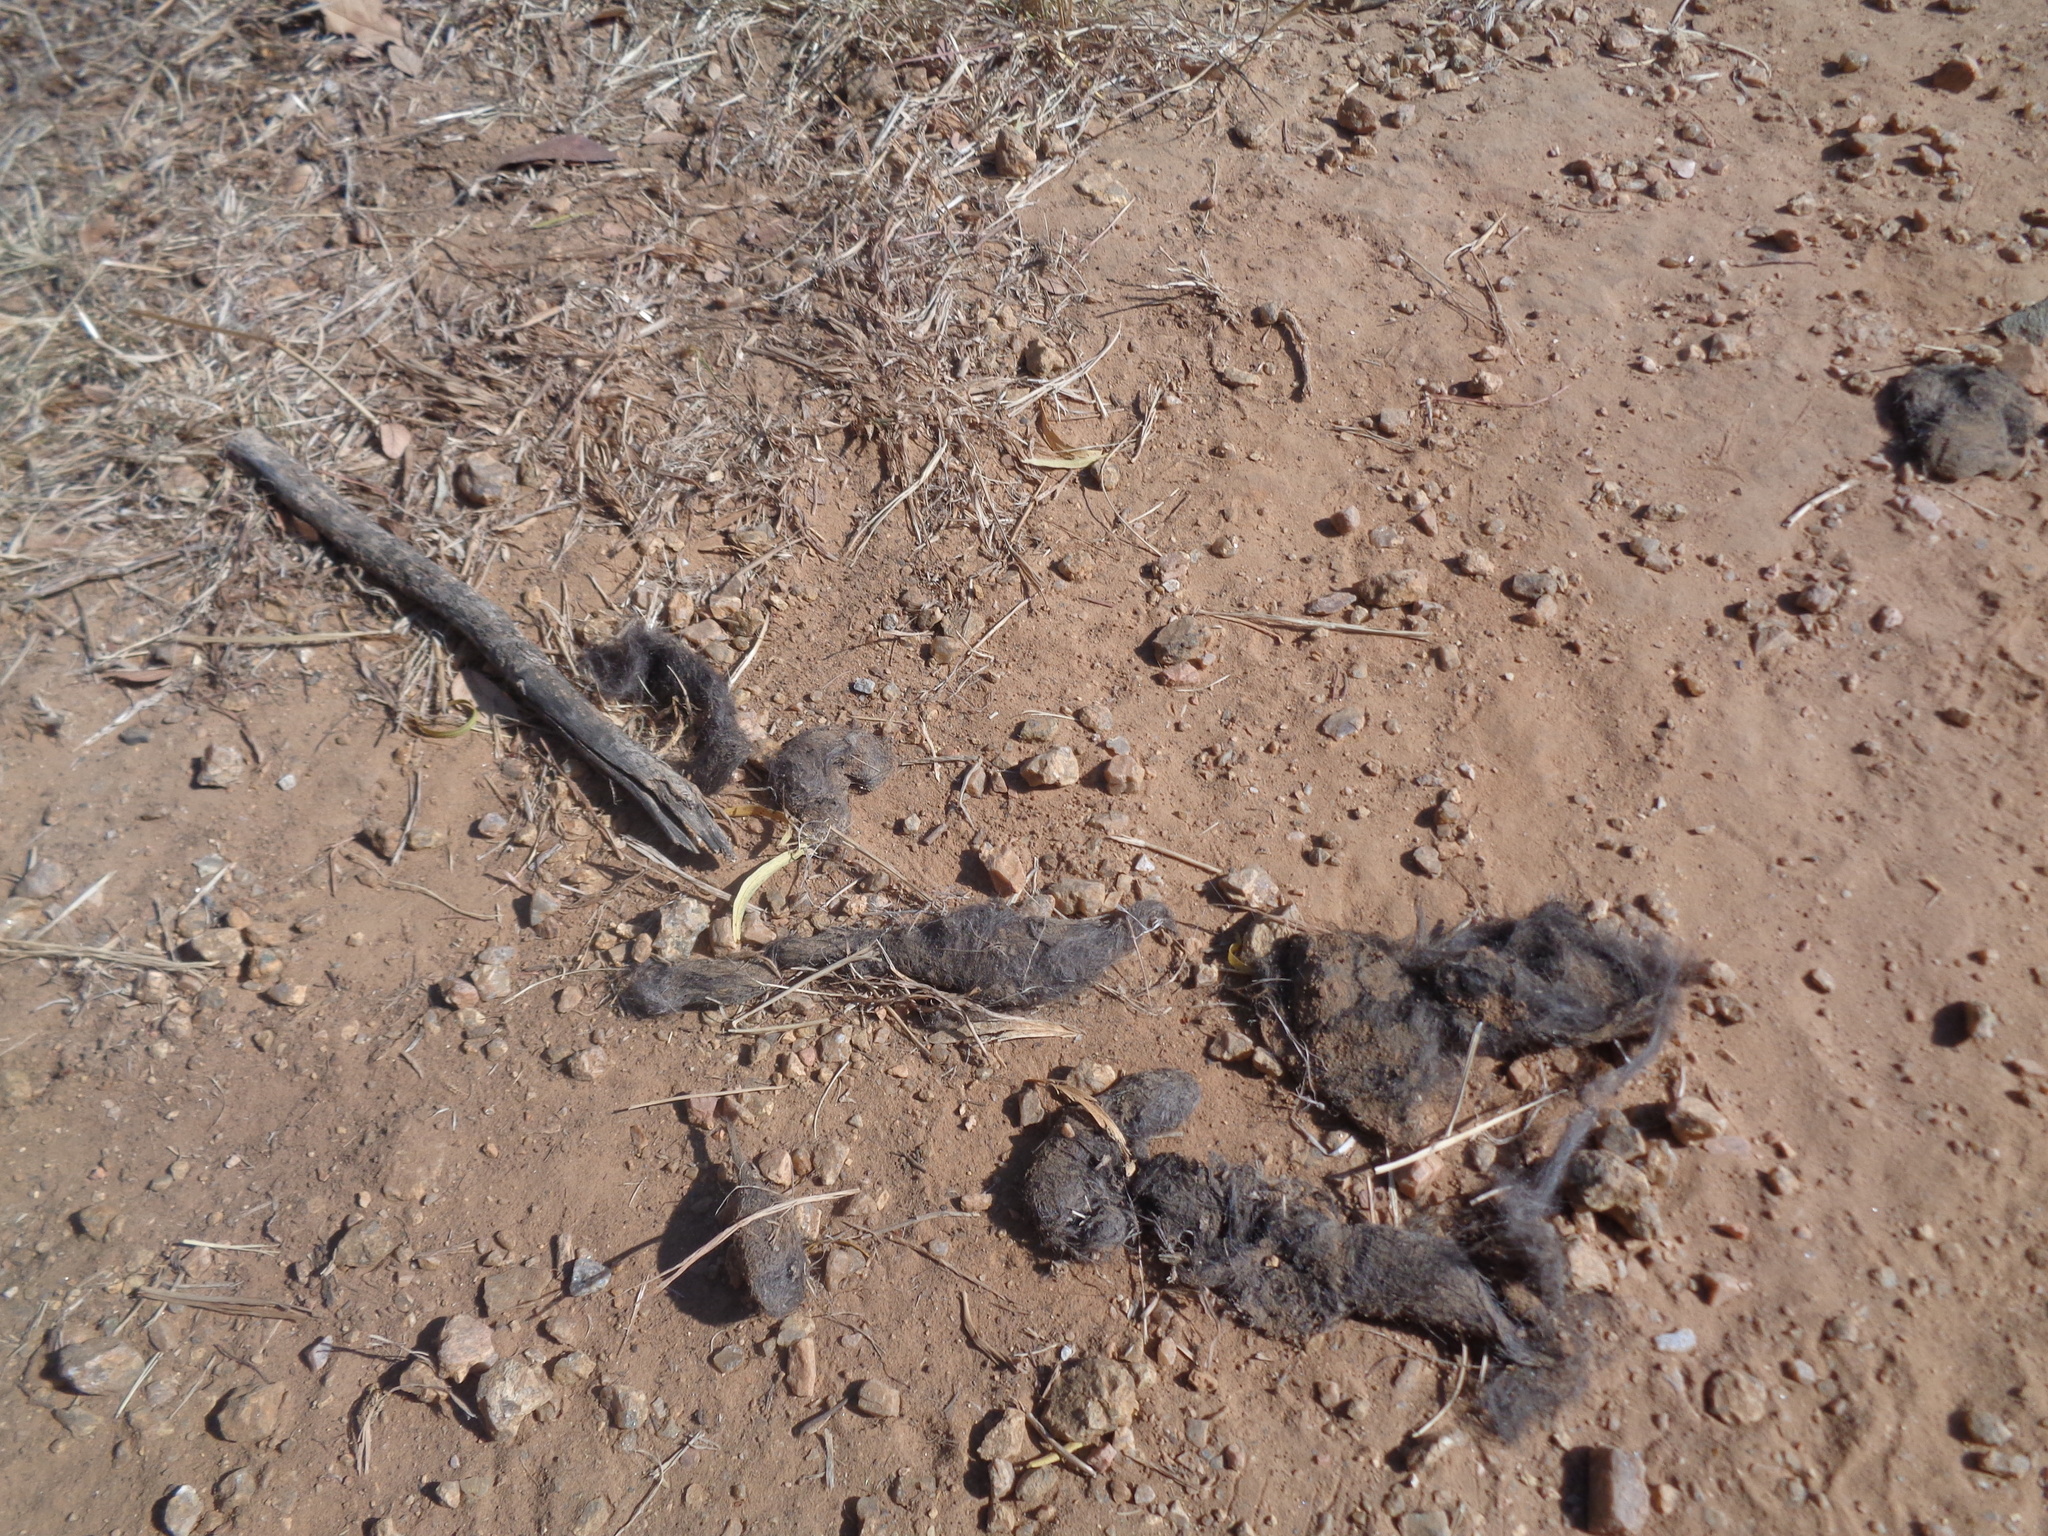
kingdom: Animalia
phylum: Chordata
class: Mammalia
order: Carnivora
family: Canidae
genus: Canis
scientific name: Canis latrans
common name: Coyote
